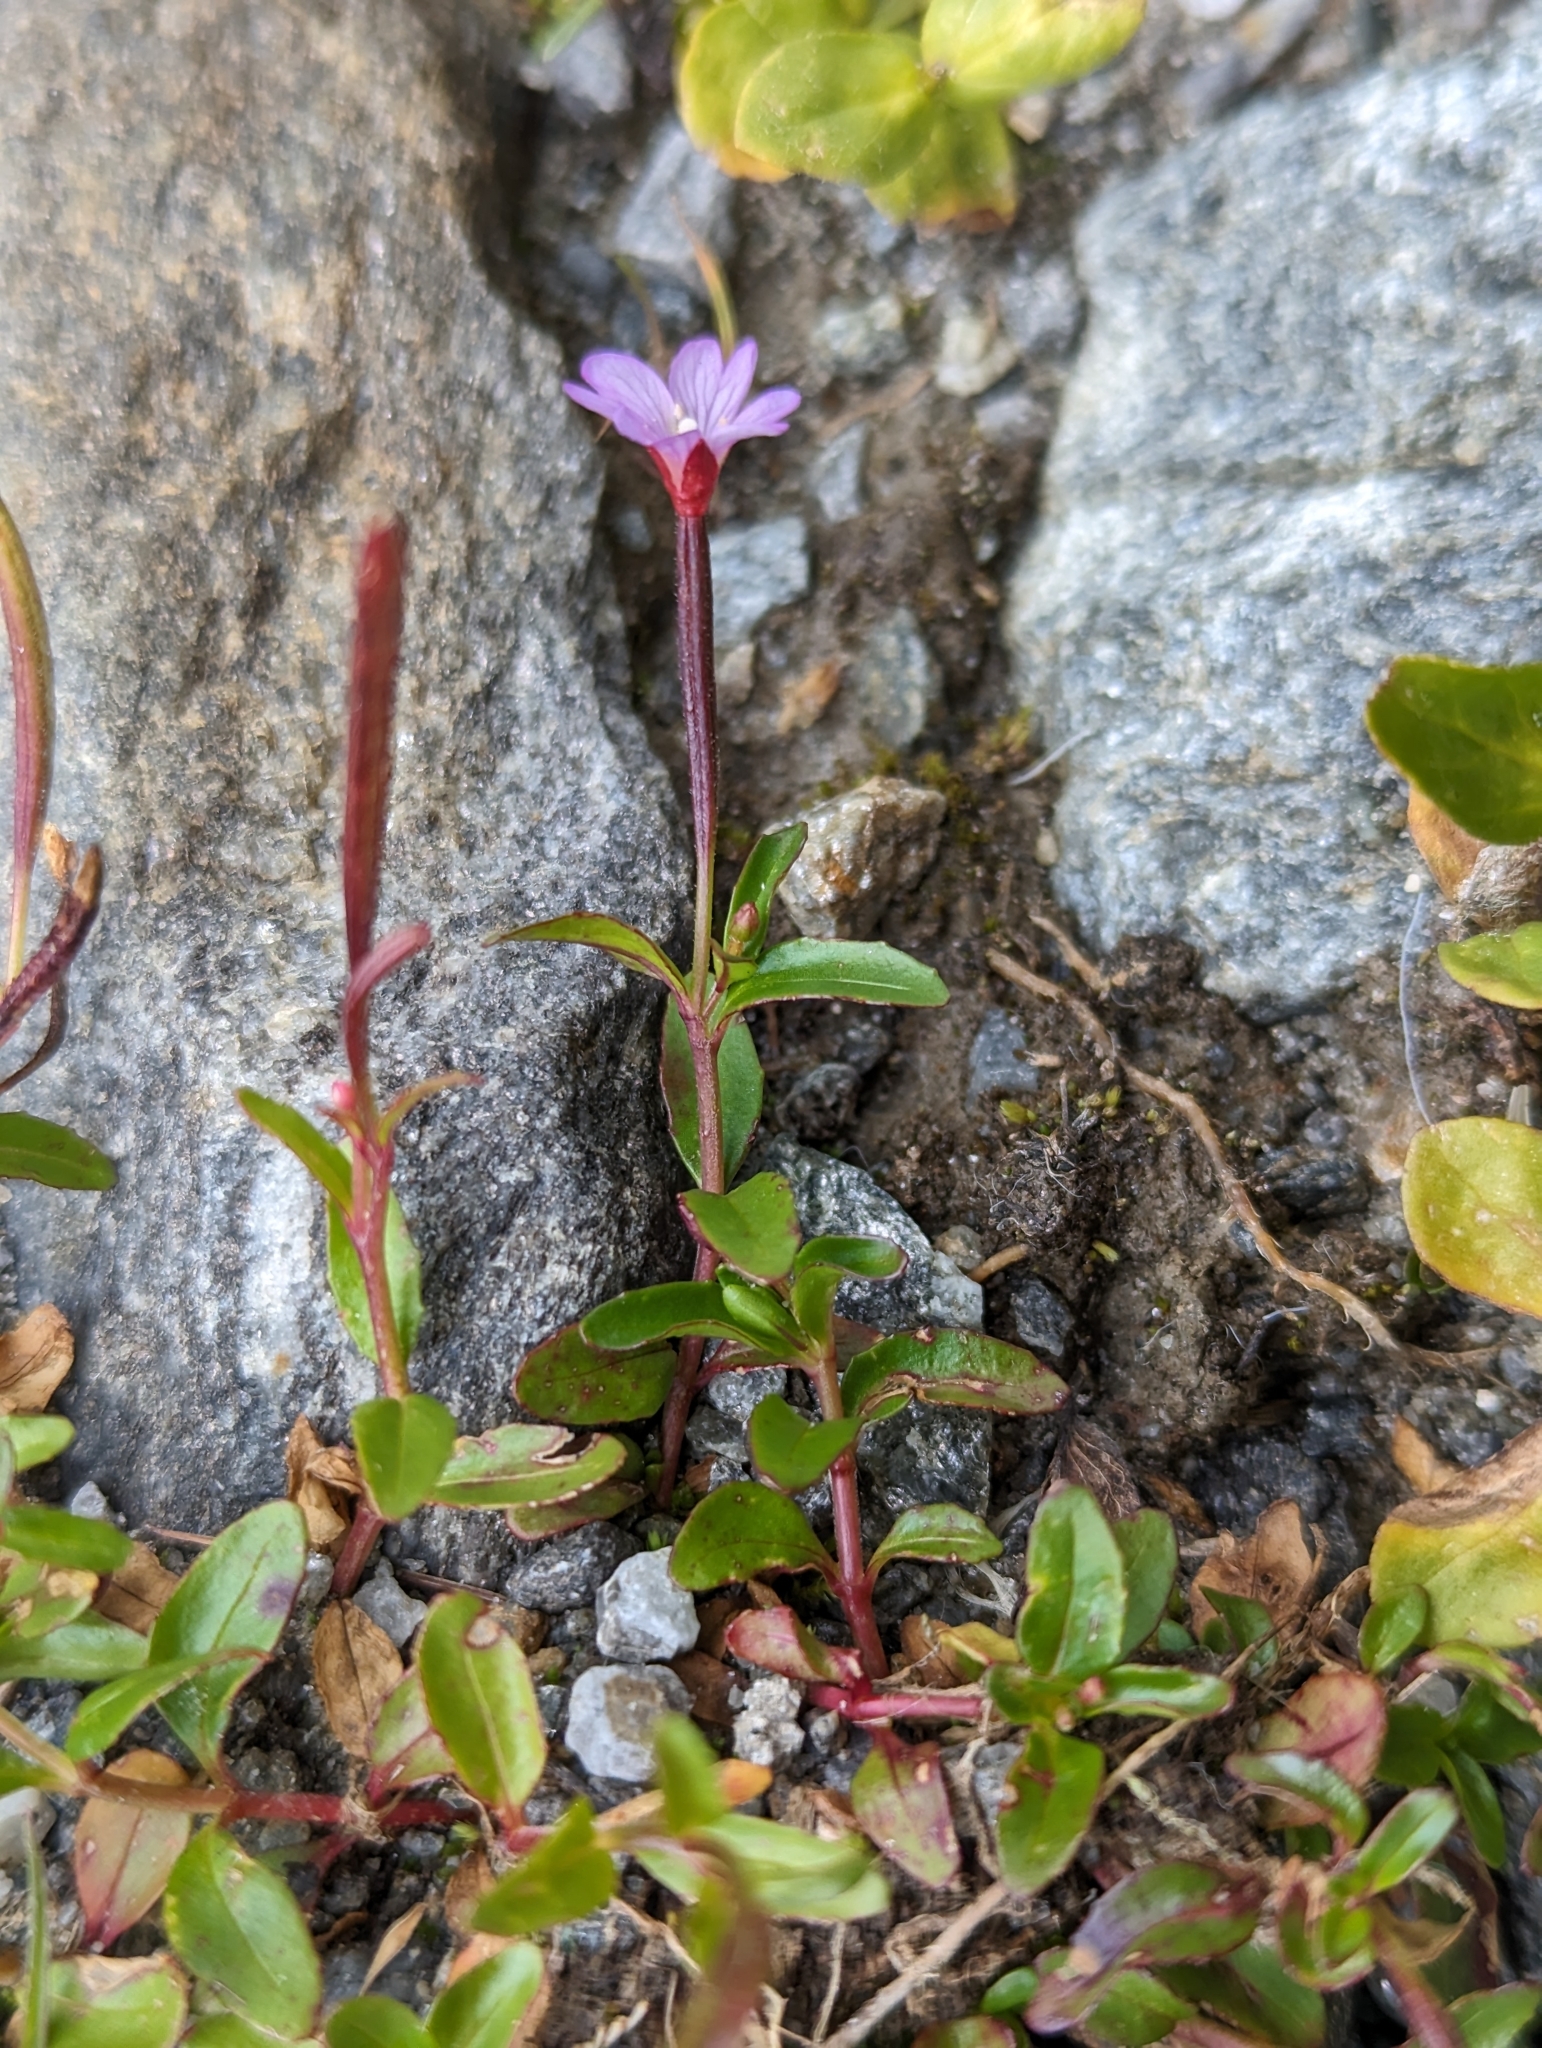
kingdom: Plantae
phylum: Tracheophyta
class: Magnoliopsida
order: Myrtales
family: Onagraceae
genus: Epilobium
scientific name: Epilobium anagallidifolium
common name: Alpine willowherb
